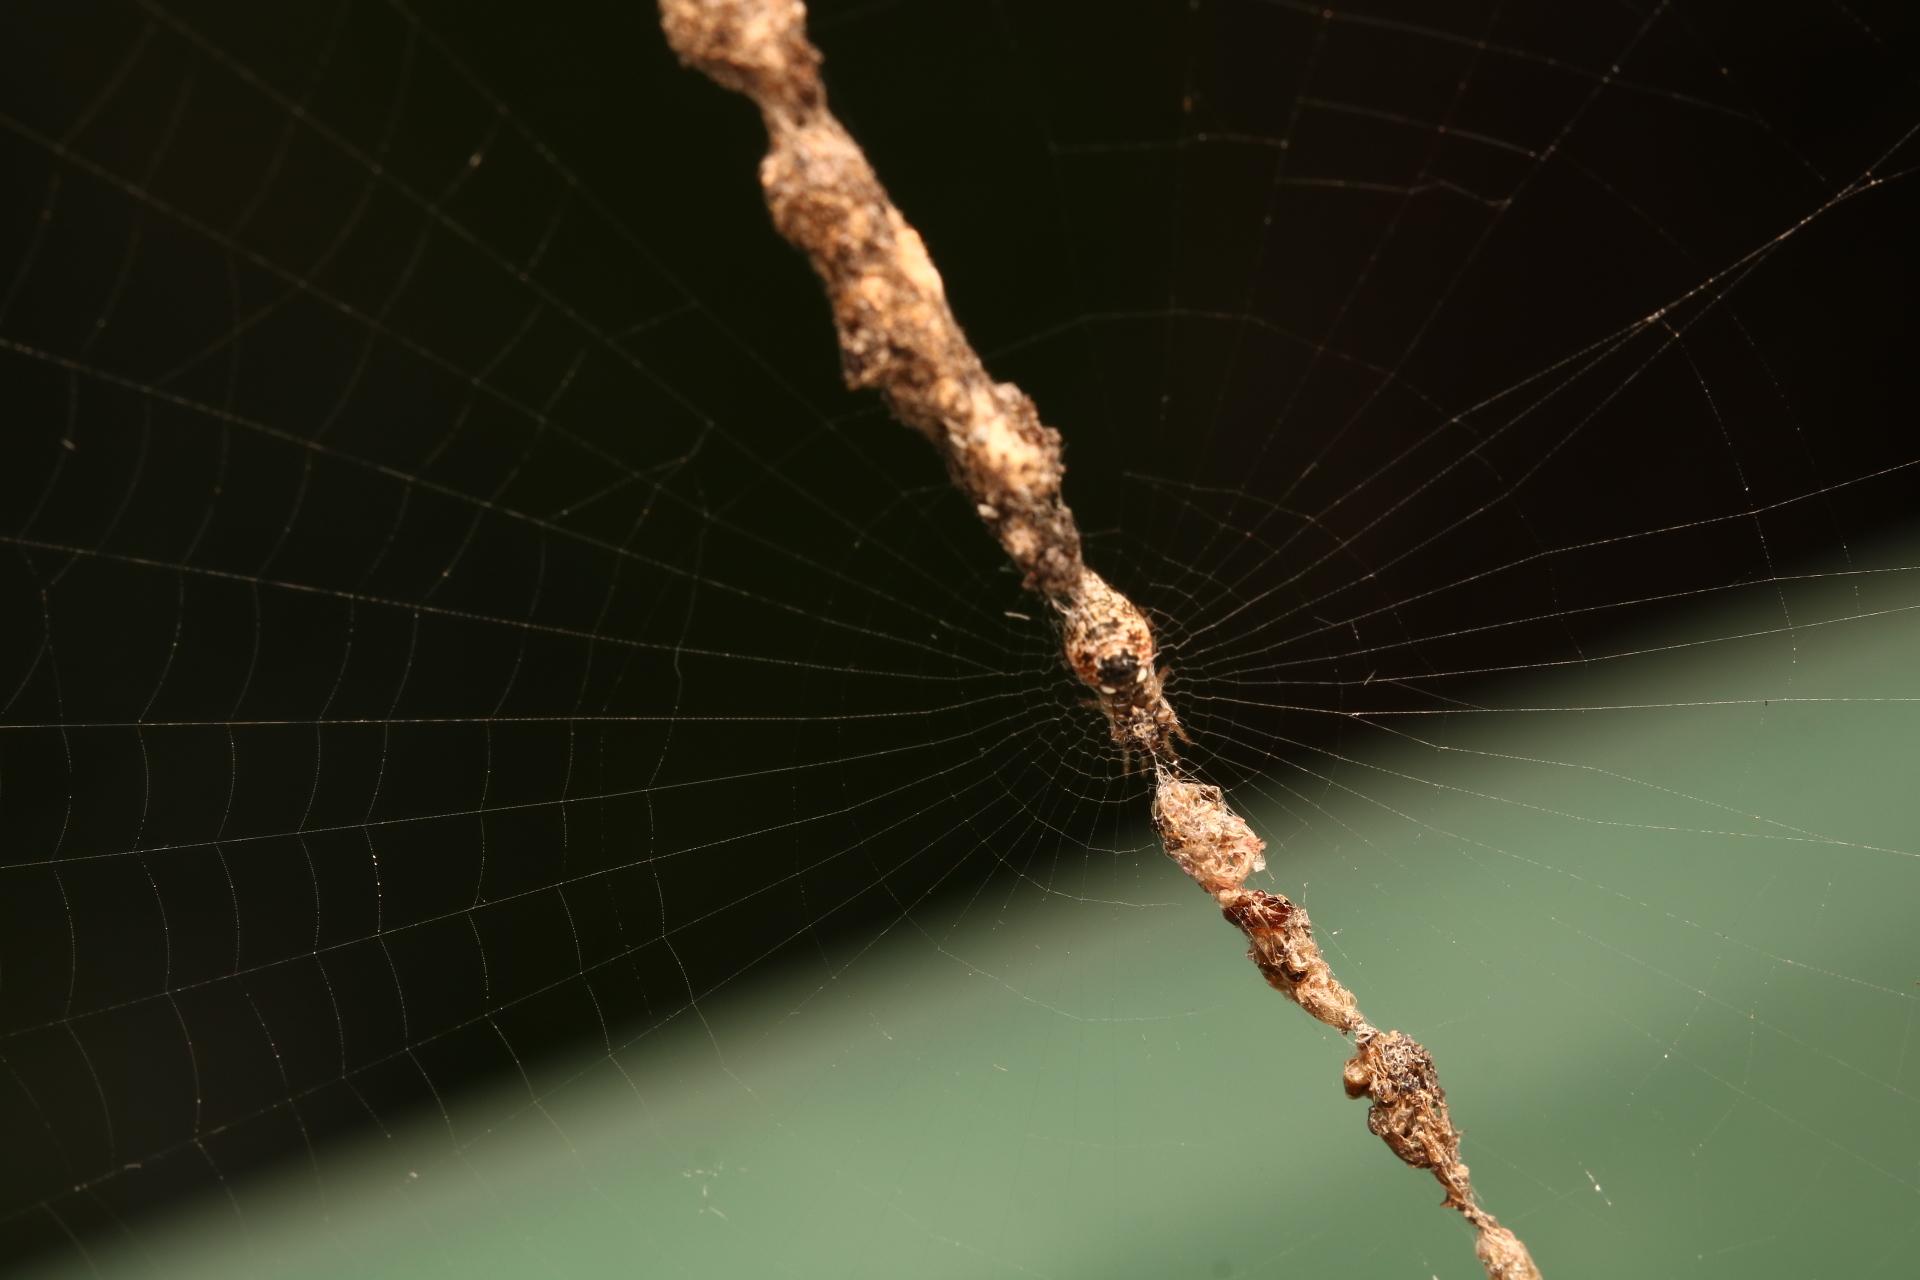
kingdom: Animalia
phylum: Arthropoda
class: Arachnida
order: Araneae
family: Araneidae
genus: Cyclosa
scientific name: Cyclosa turbinata
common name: Orb weavers
